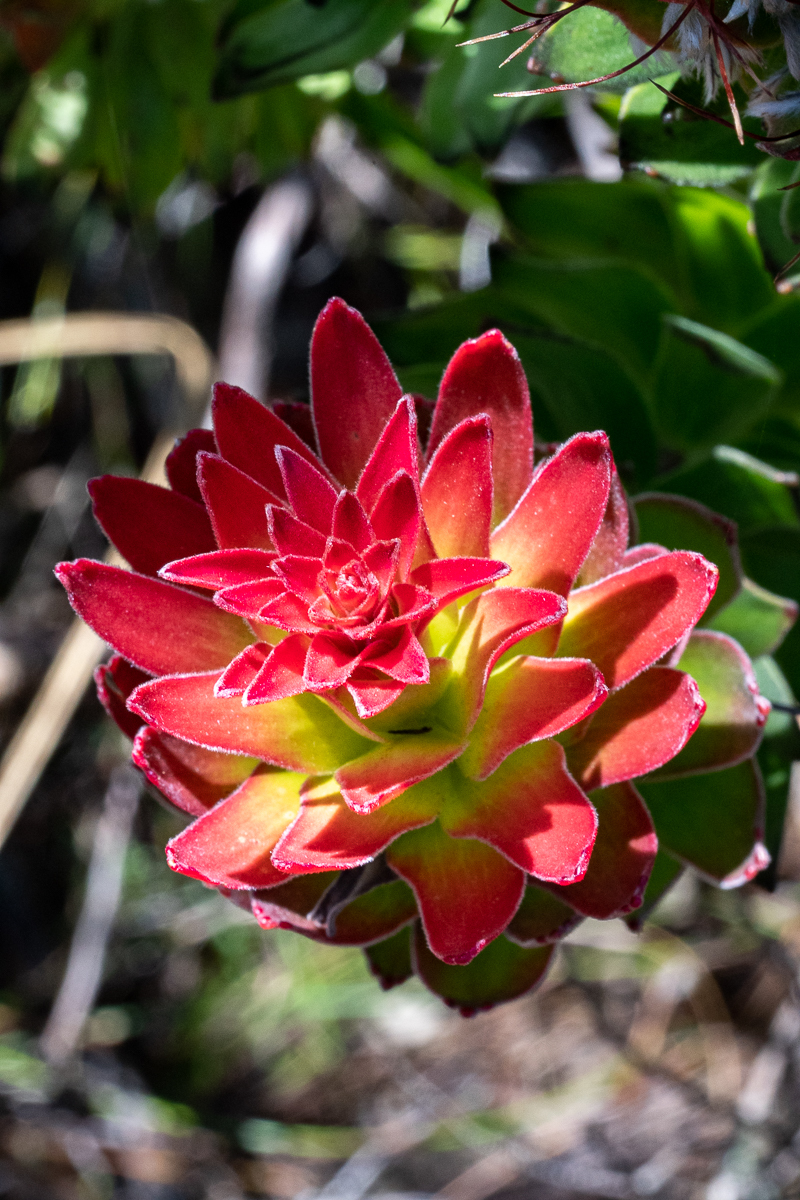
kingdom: Plantae
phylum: Tracheophyta
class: Magnoliopsida
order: Proteales
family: Proteaceae
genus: Mimetes
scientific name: Mimetes cucullatus
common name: Common pagoda
